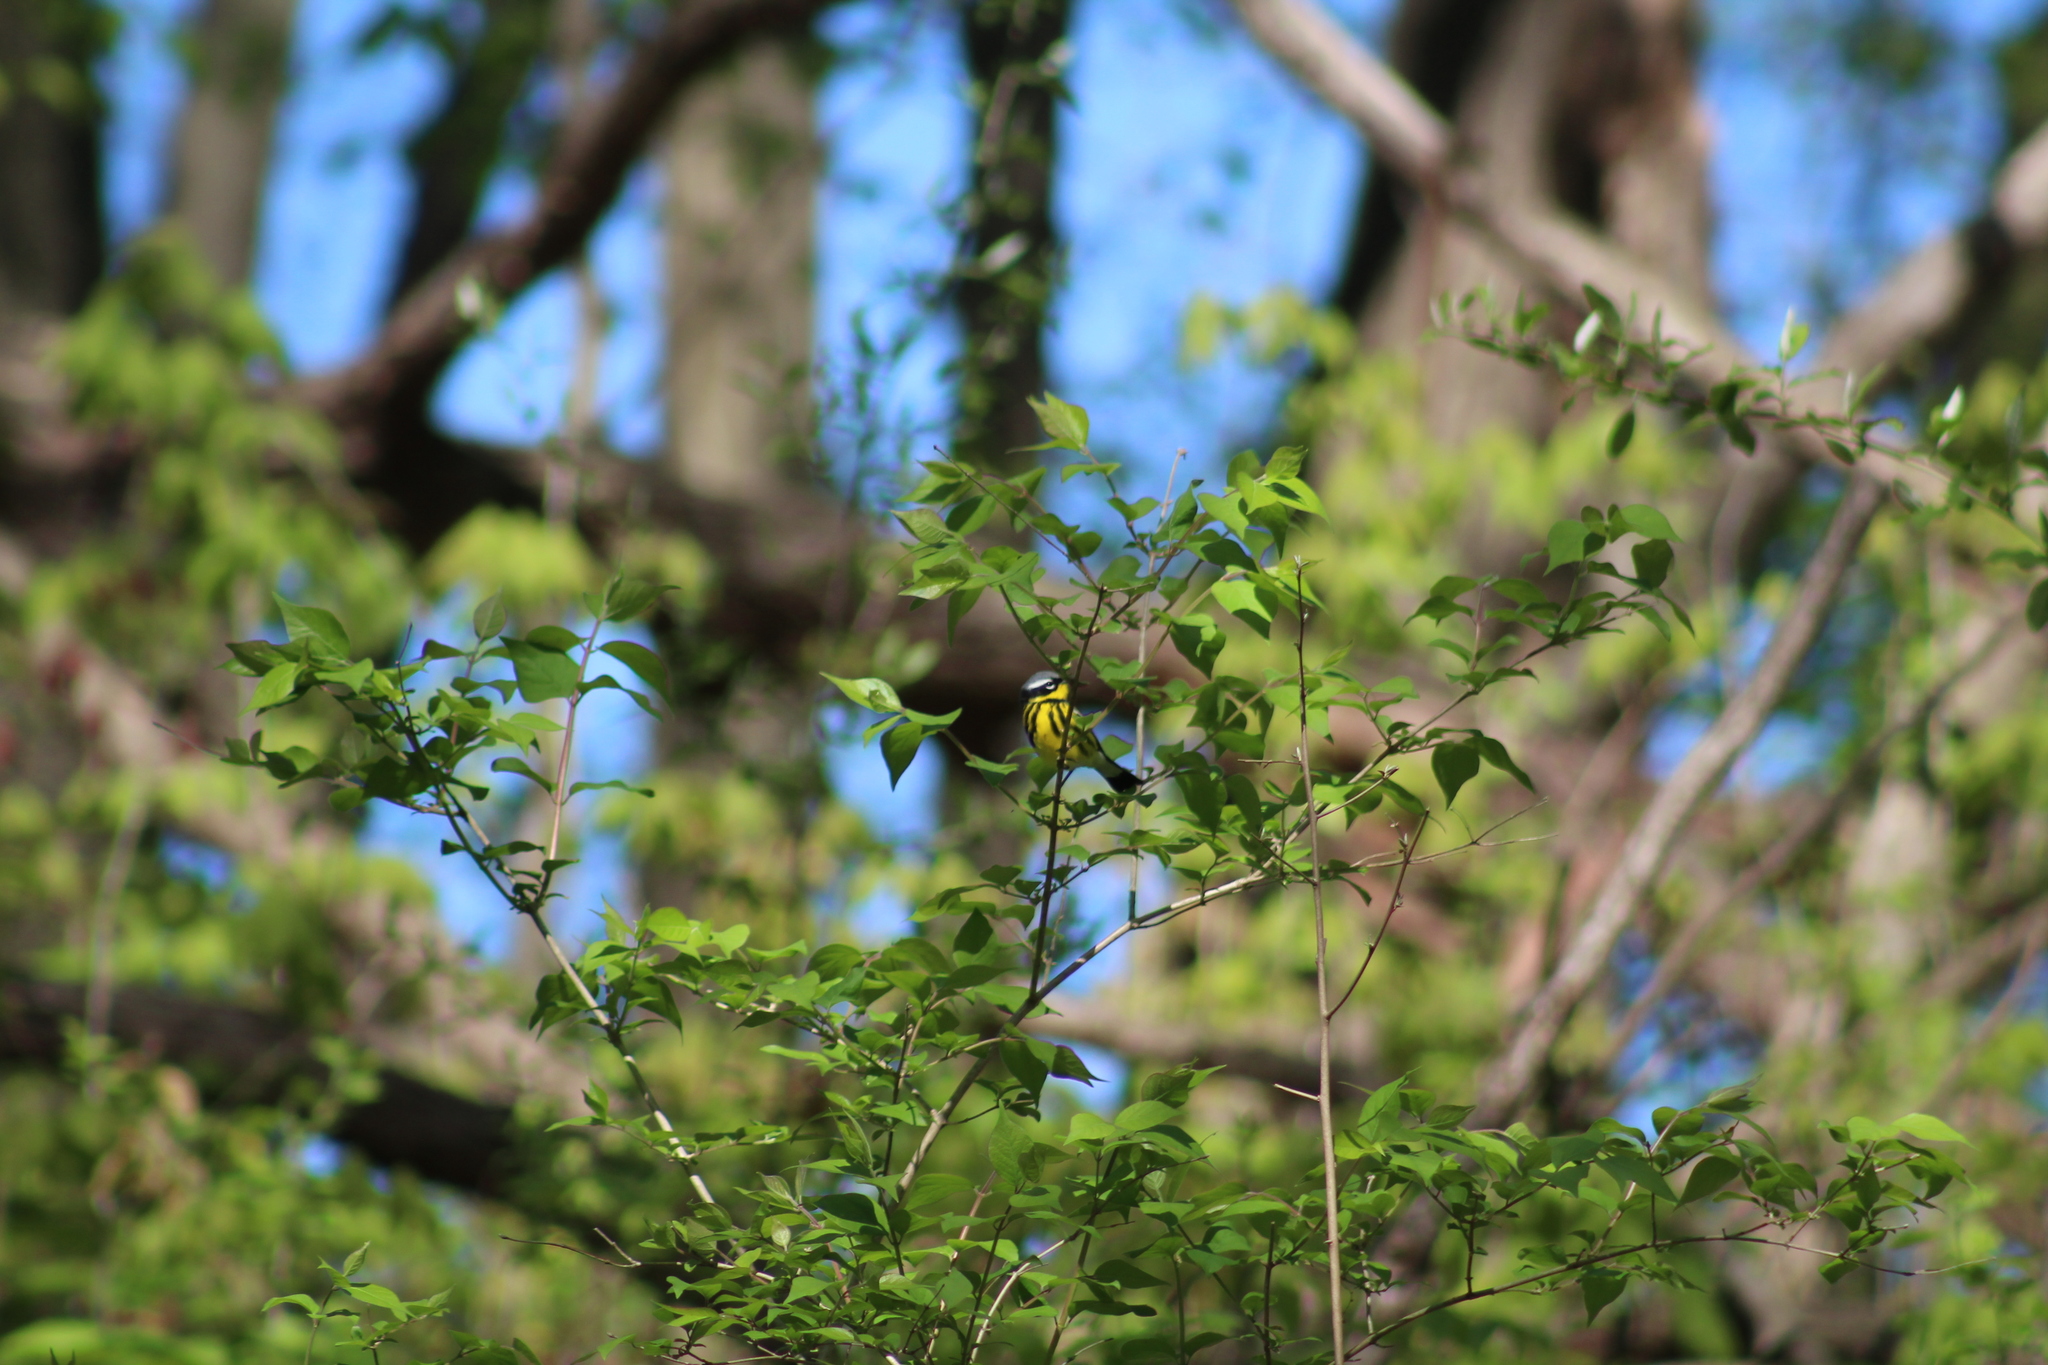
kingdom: Animalia
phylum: Chordata
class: Aves
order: Passeriformes
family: Parulidae
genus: Setophaga
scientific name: Setophaga magnolia
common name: Magnolia warbler
